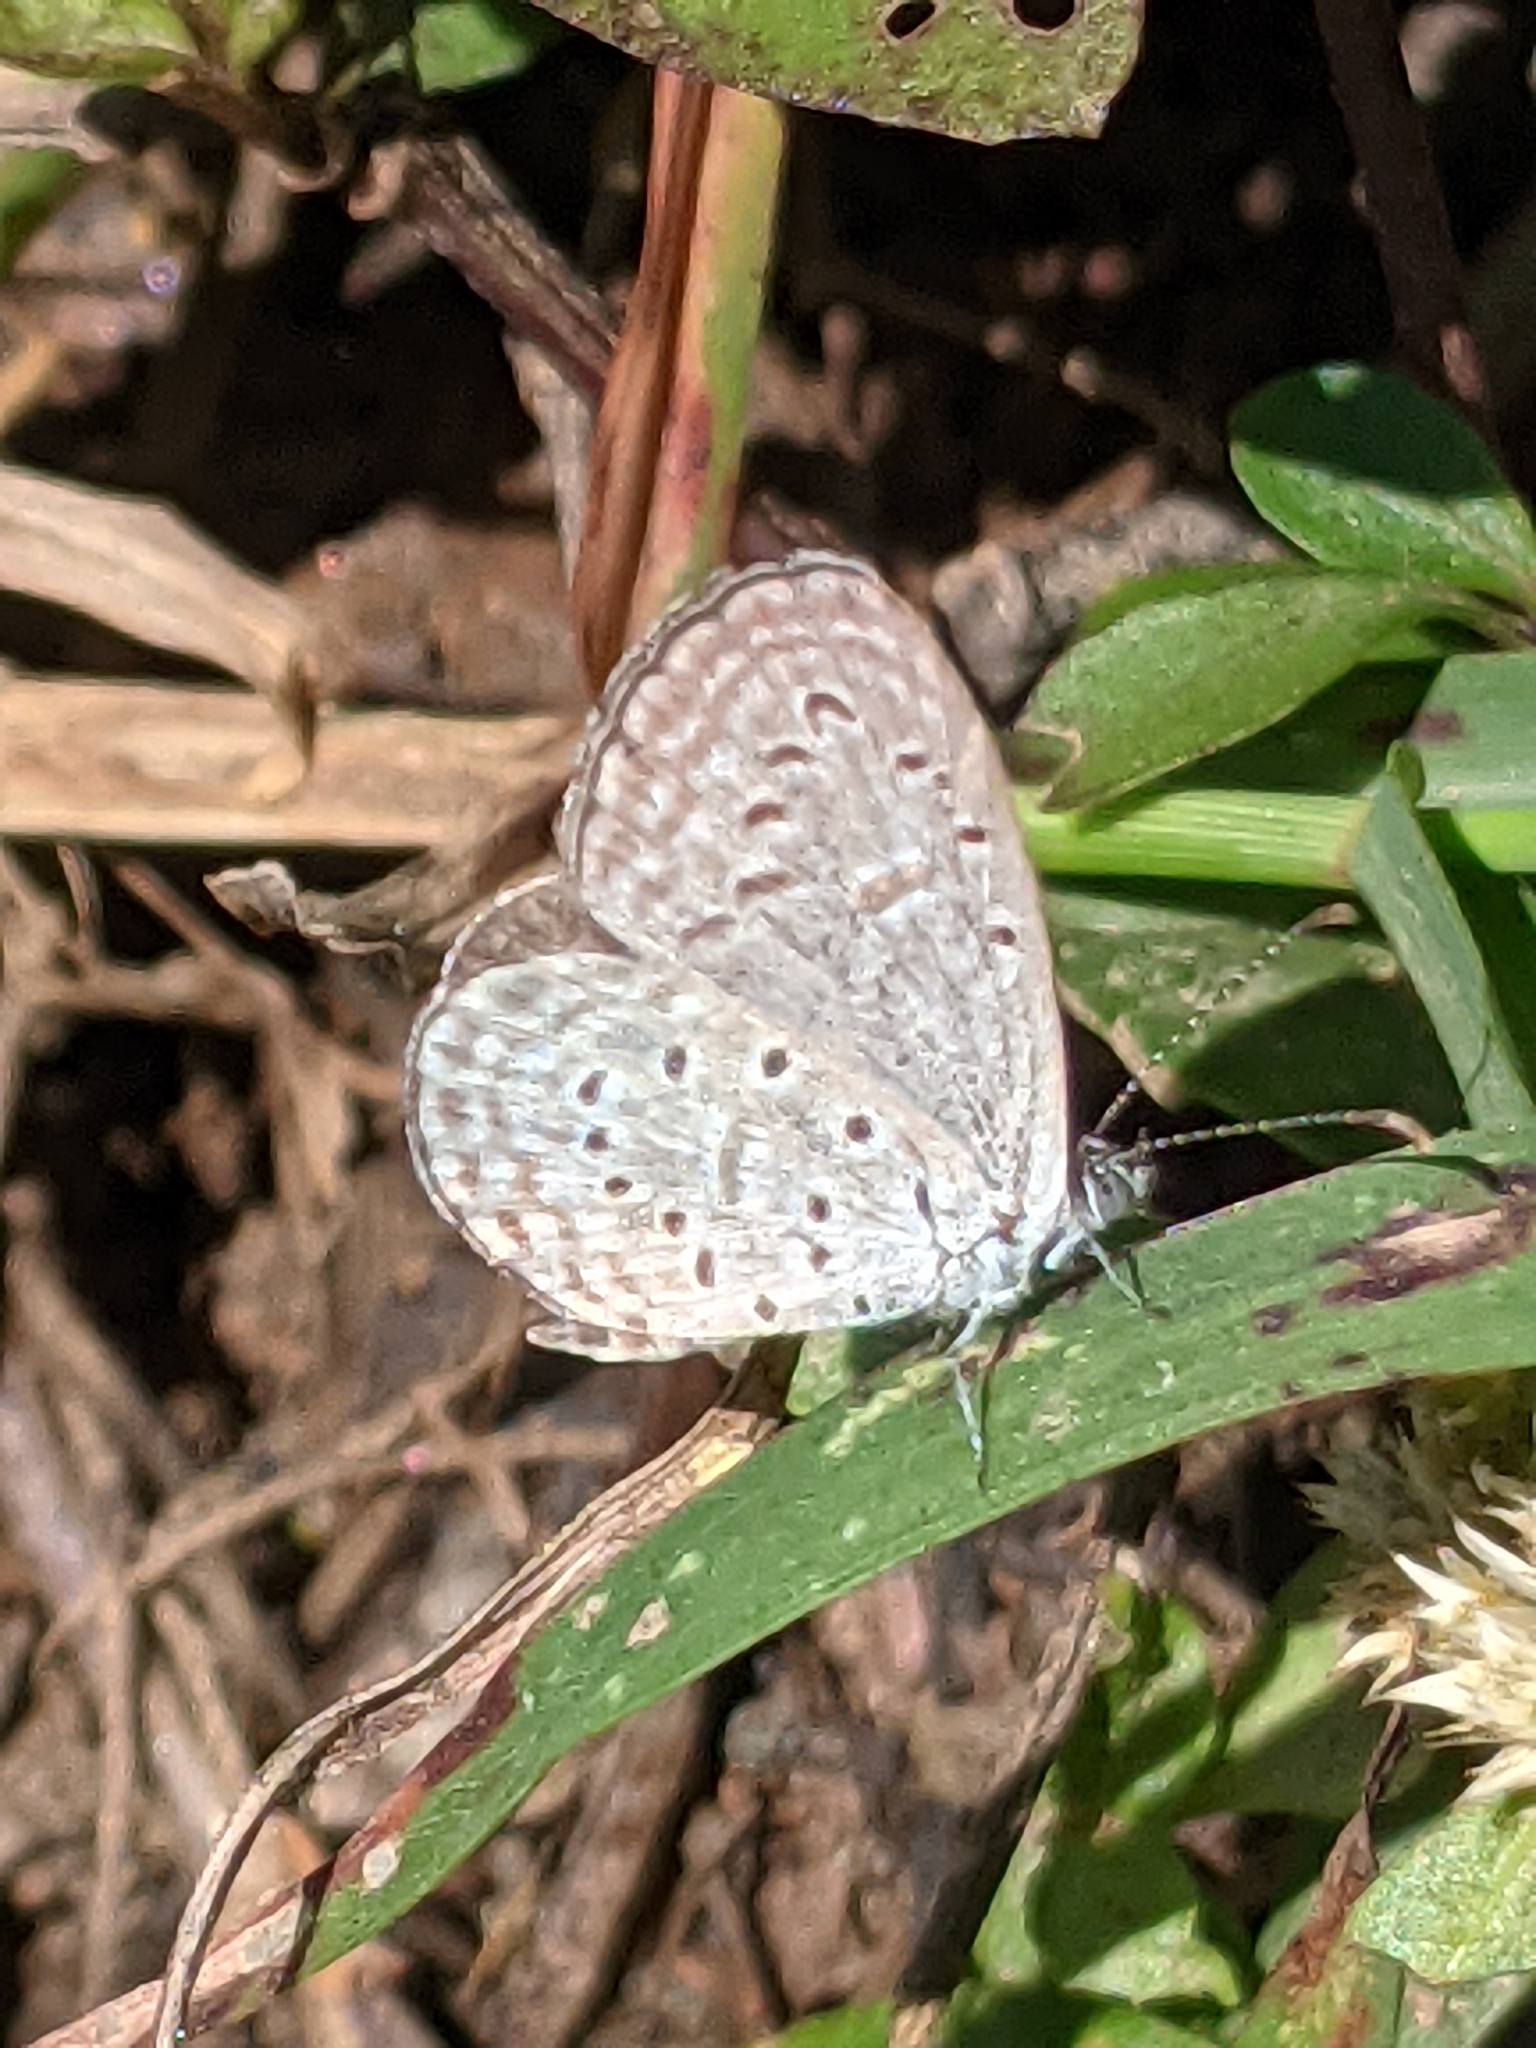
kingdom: Animalia
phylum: Arthropoda
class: Insecta
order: Lepidoptera
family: Lycaenidae
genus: Zizula
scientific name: Zizula hylax
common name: Gaika blue
